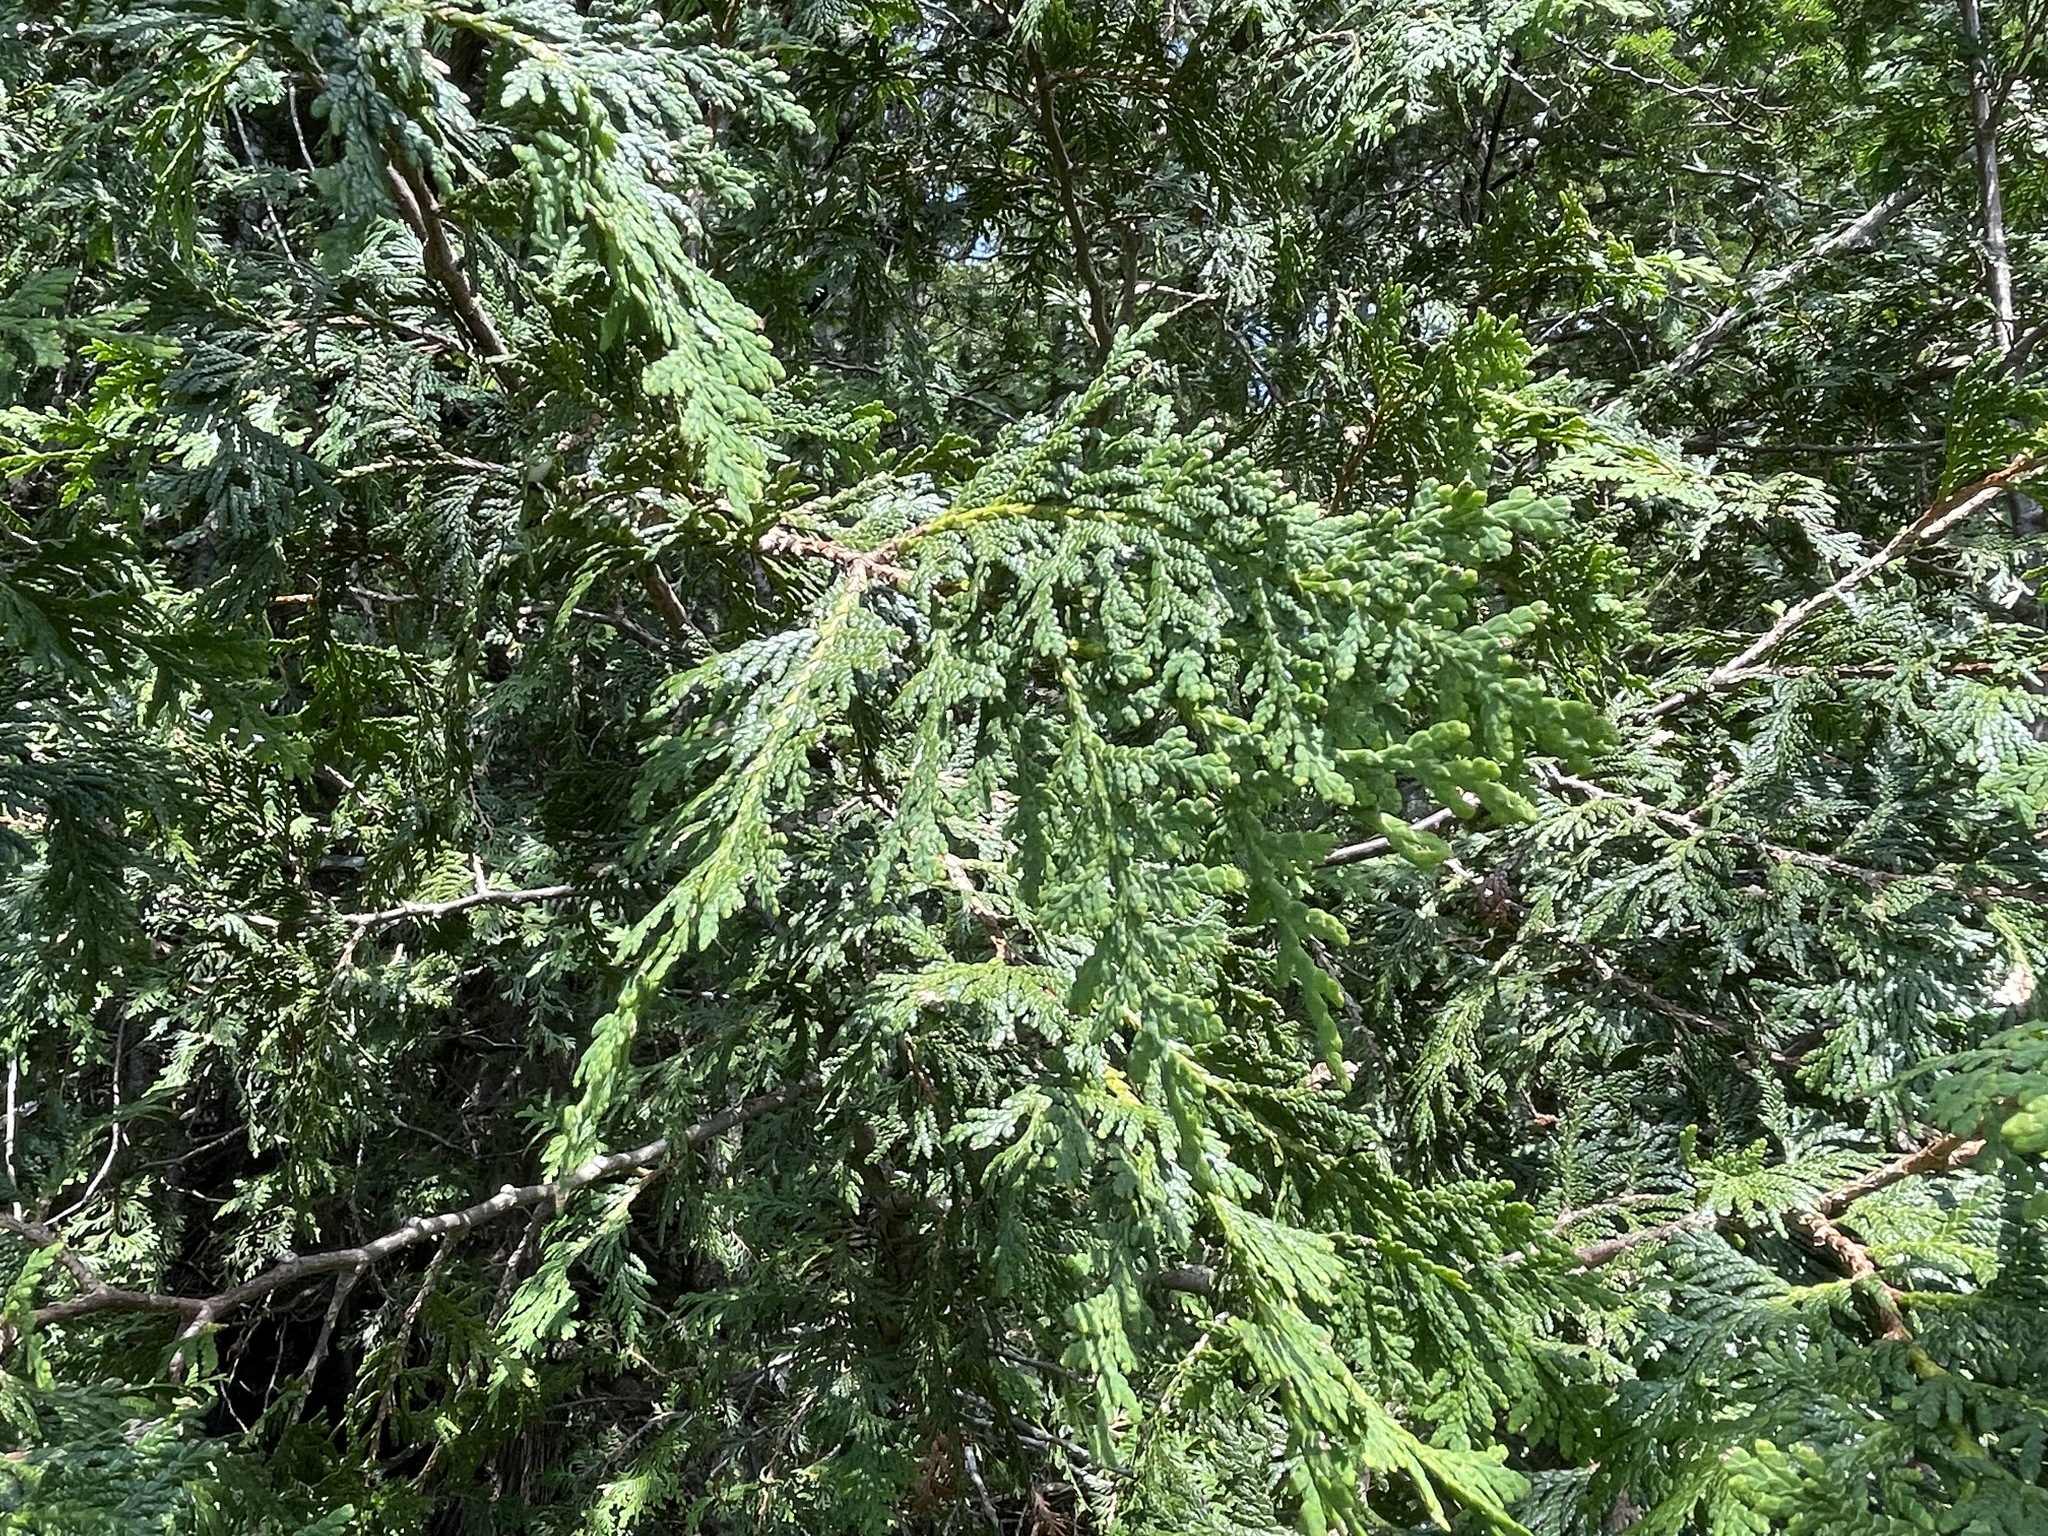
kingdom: Plantae
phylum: Tracheophyta
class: Pinopsida
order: Pinales
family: Cupressaceae
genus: Thuja
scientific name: Thuja occidentalis
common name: Northern white-cedar
